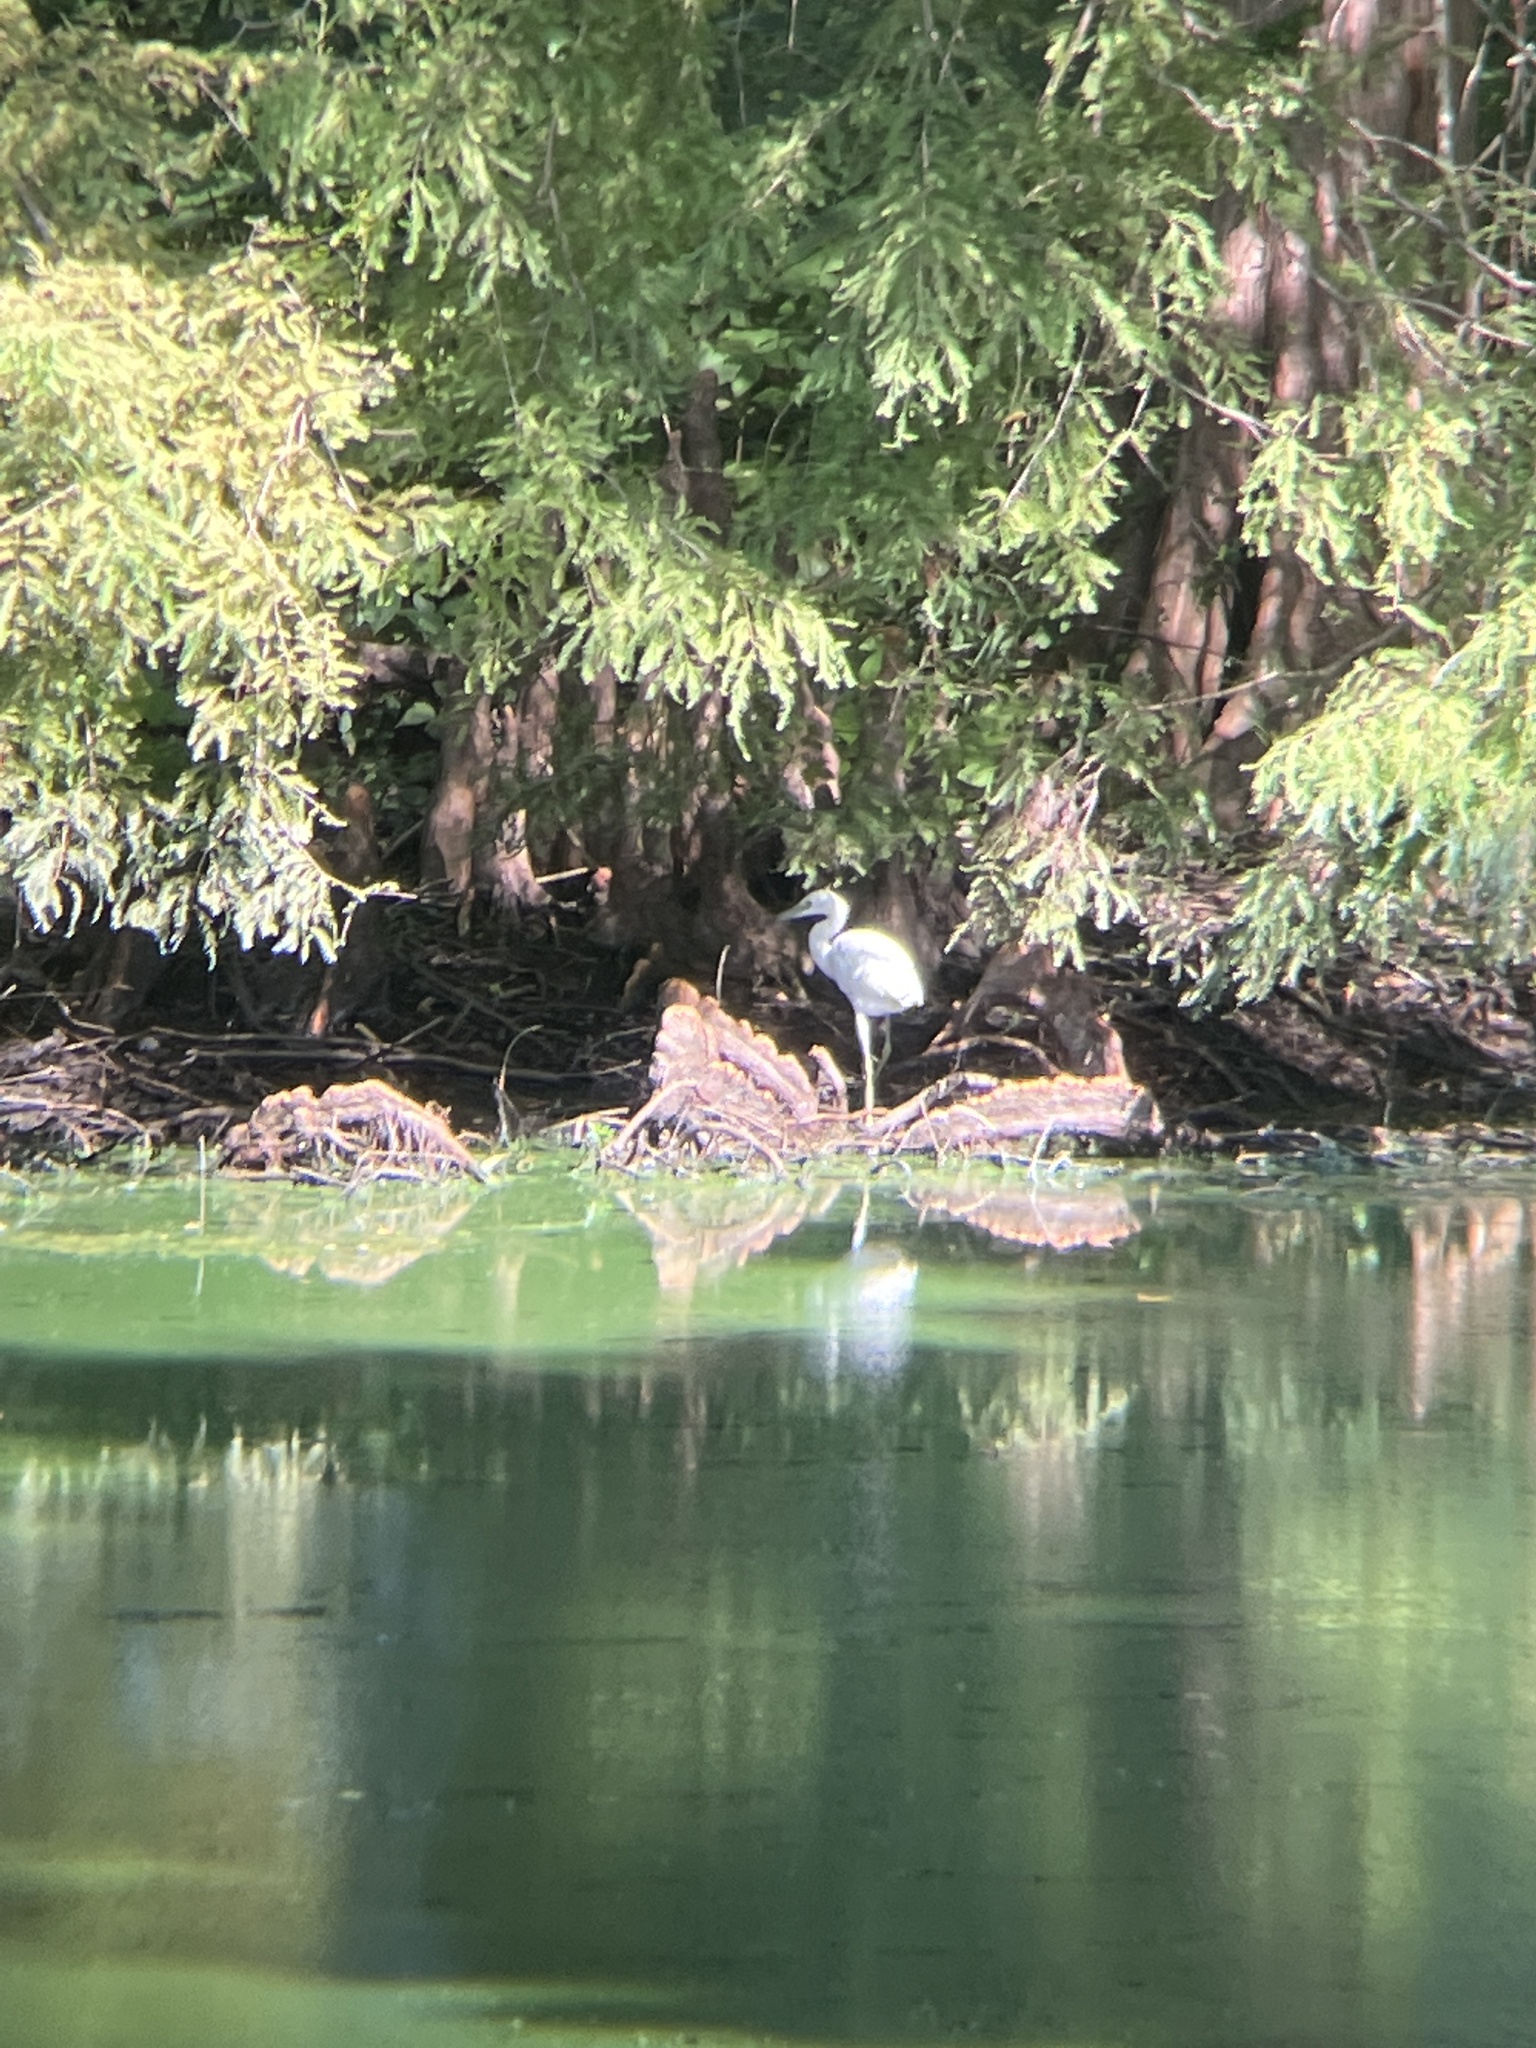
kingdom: Animalia
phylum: Chordata
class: Aves
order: Pelecaniformes
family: Ardeidae
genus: Egretta
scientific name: Egretta caerulea
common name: Little blue heron
